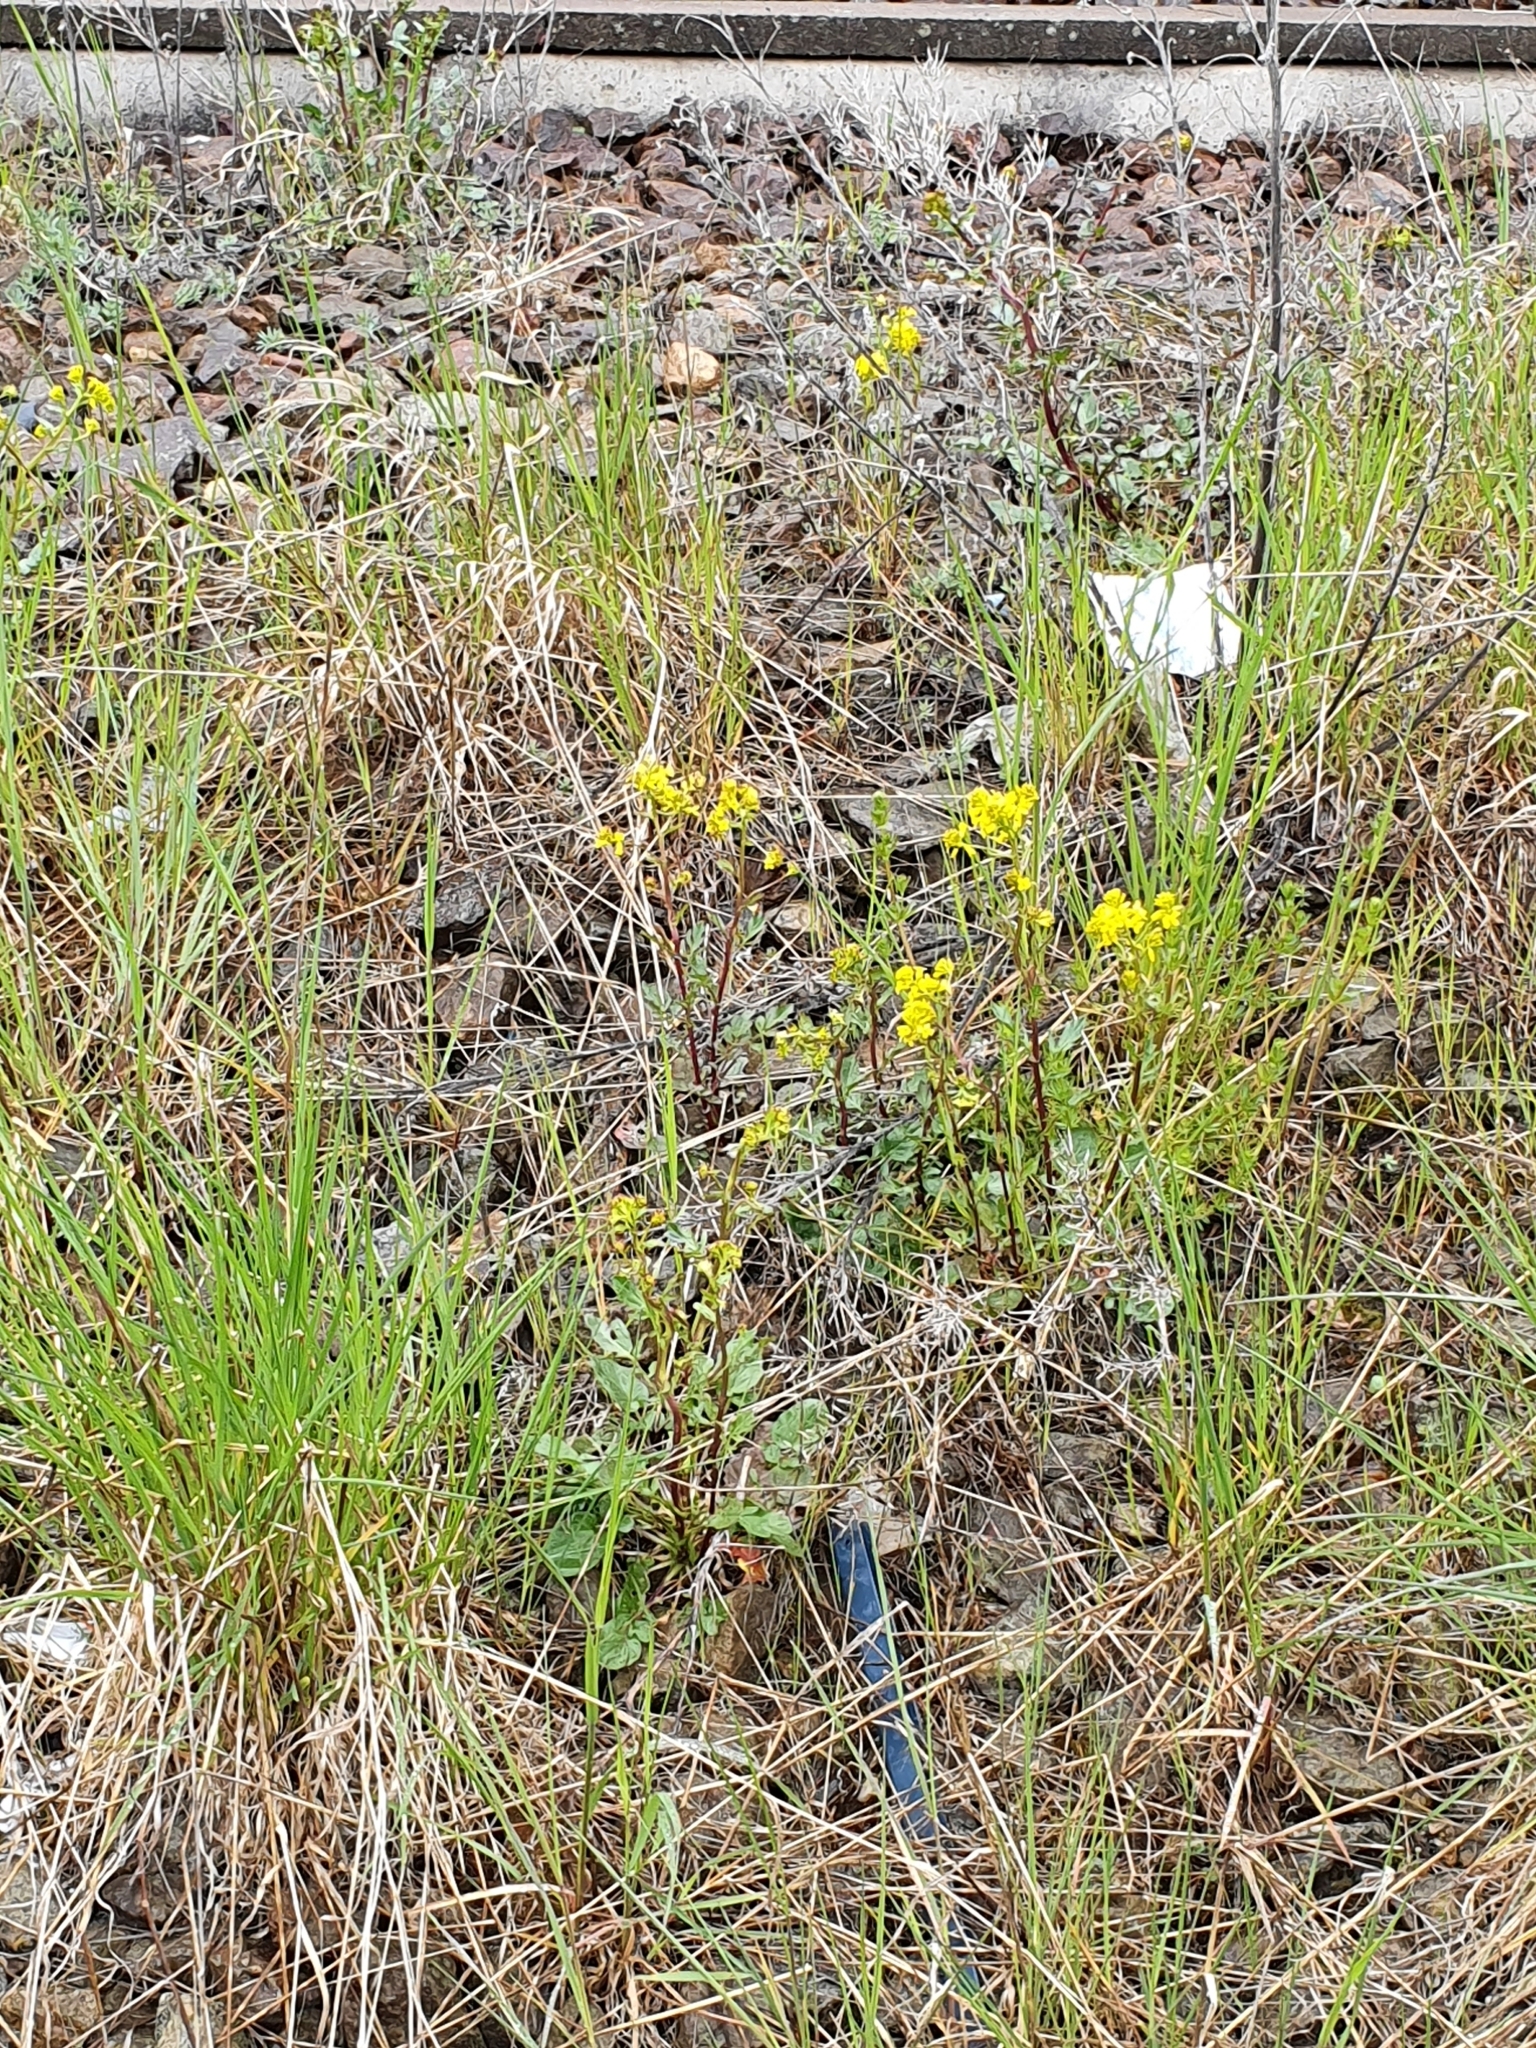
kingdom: Plantae
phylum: Tracheophyta
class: Magnoliopsida
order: Brassicales
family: Brassicaceae
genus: Barbarea
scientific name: Barbarea vulgaris
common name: Cressy-greens
